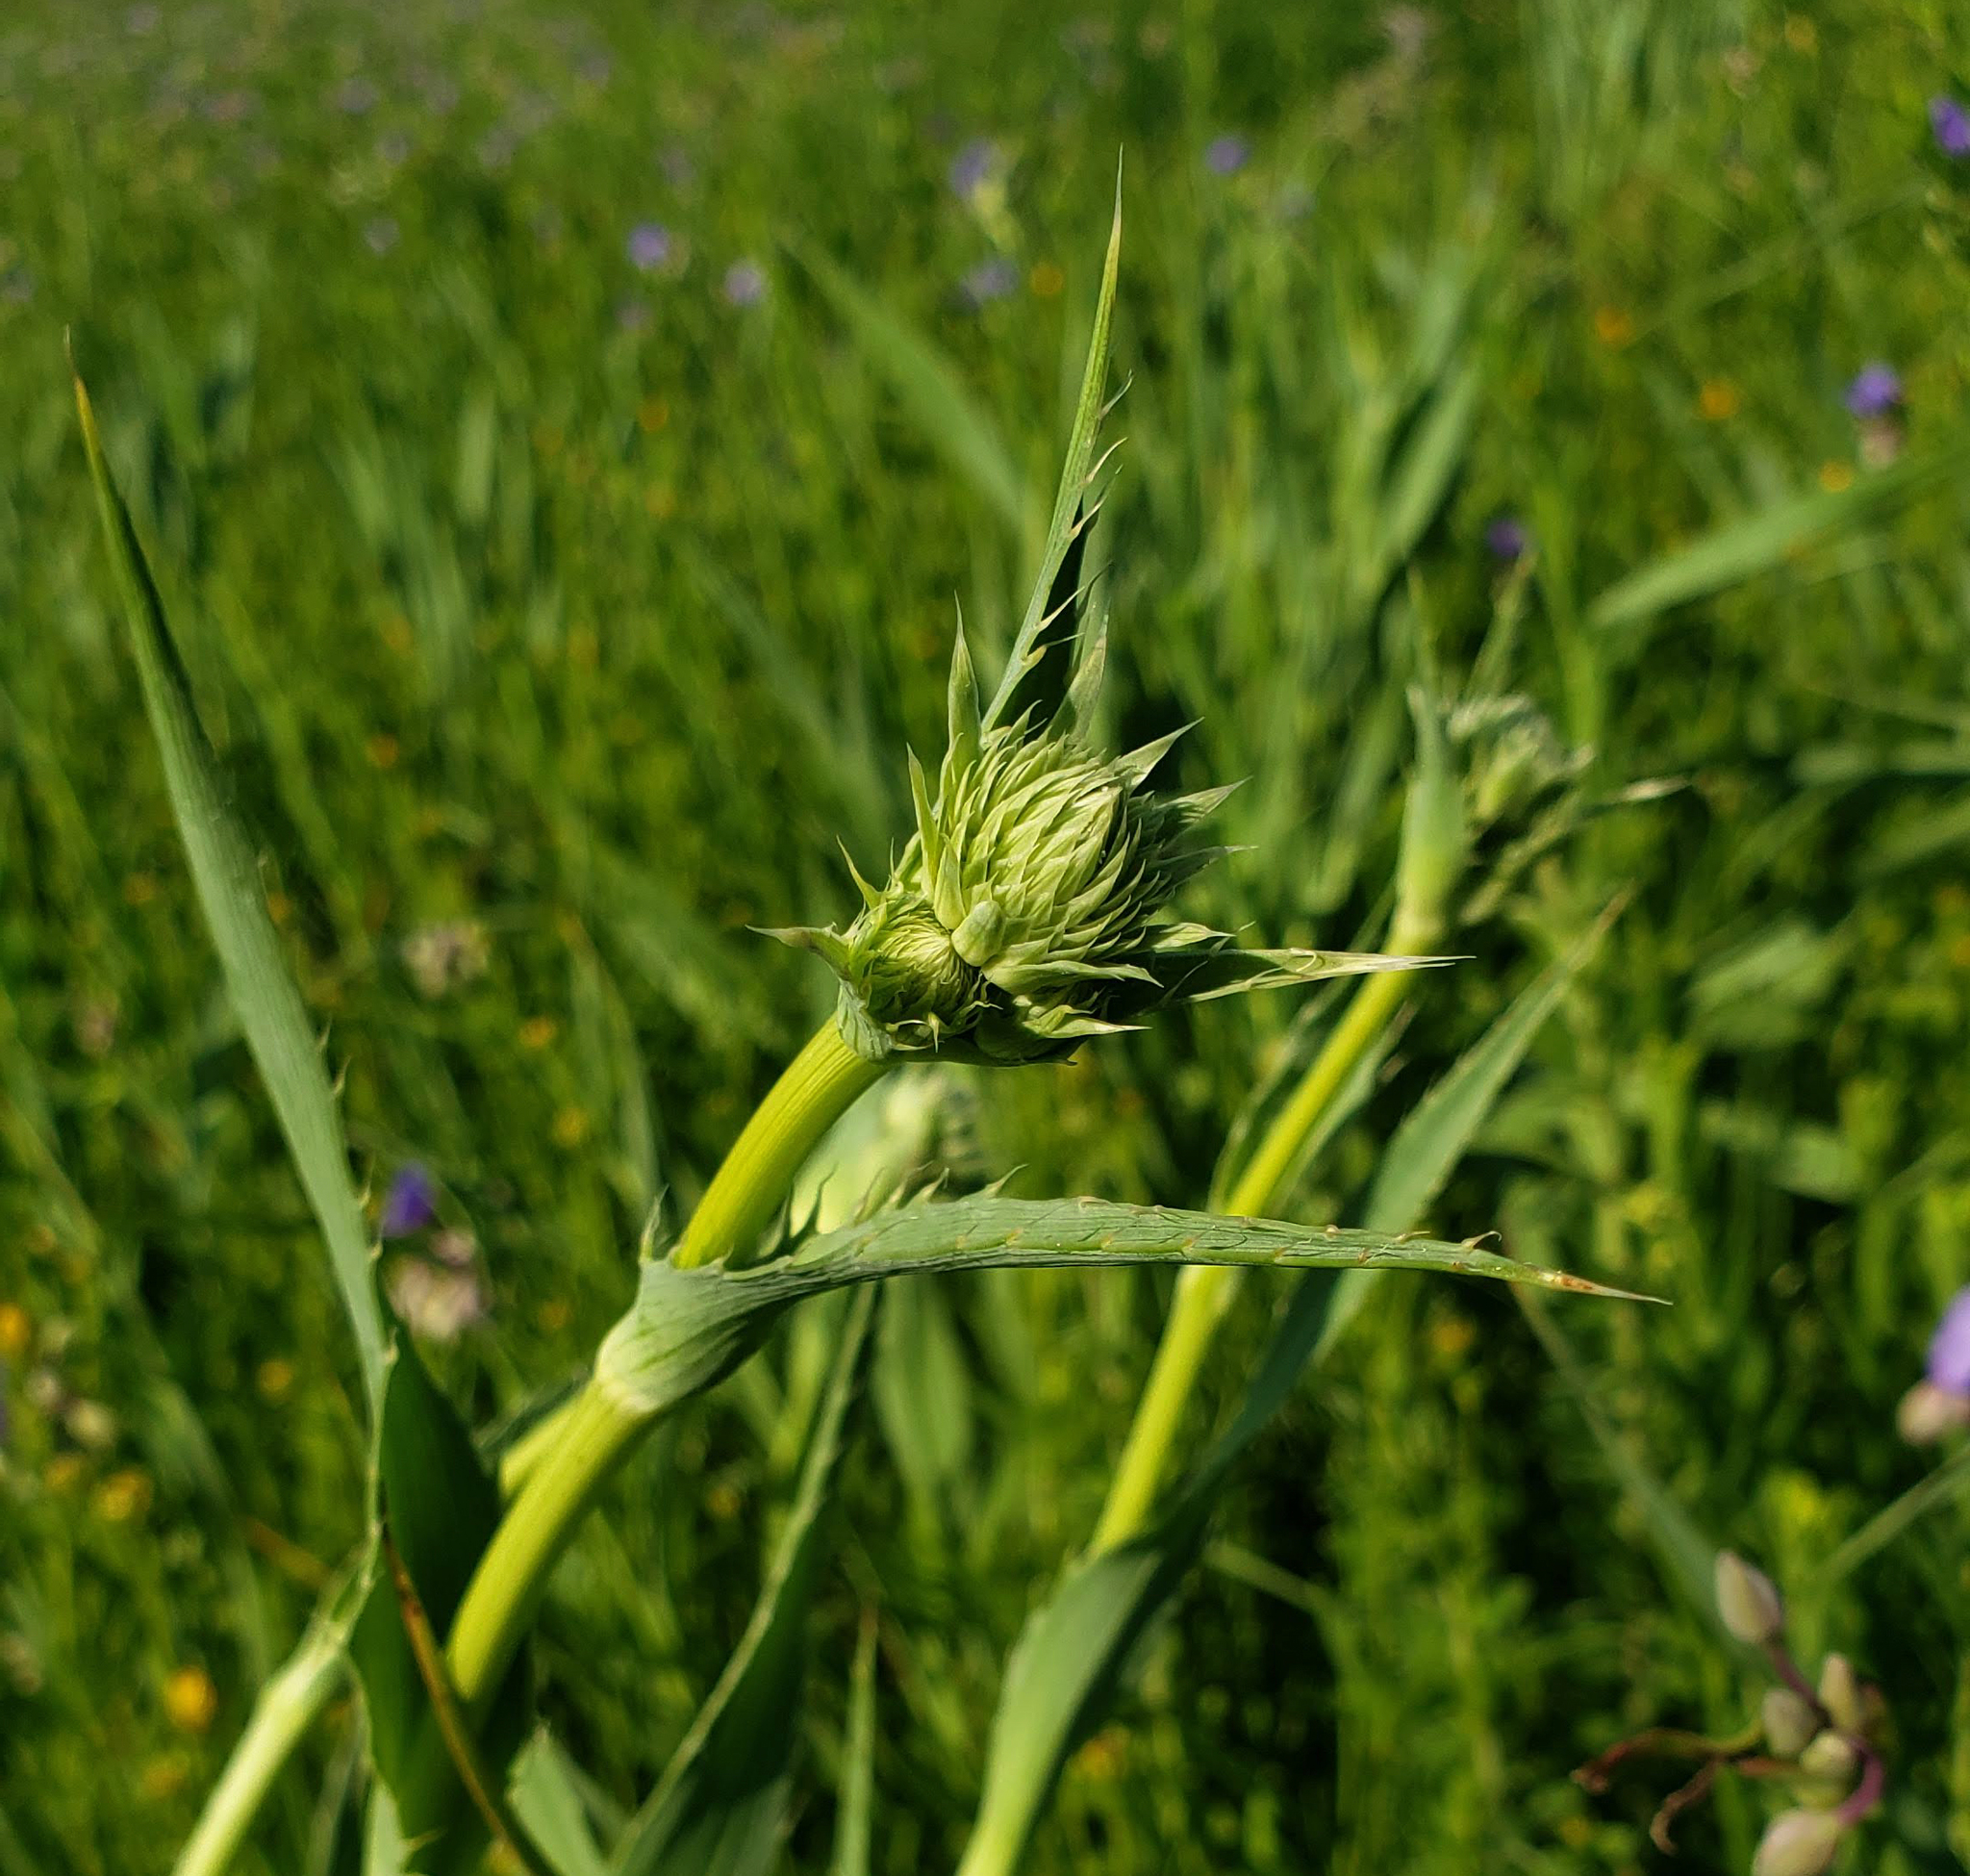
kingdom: Plantae
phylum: Tracheophyta
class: Magnoliopsida
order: Apiales
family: Apiaceae
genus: Eryngium
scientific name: Eryngium yuccifolium
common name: Button eryngo
